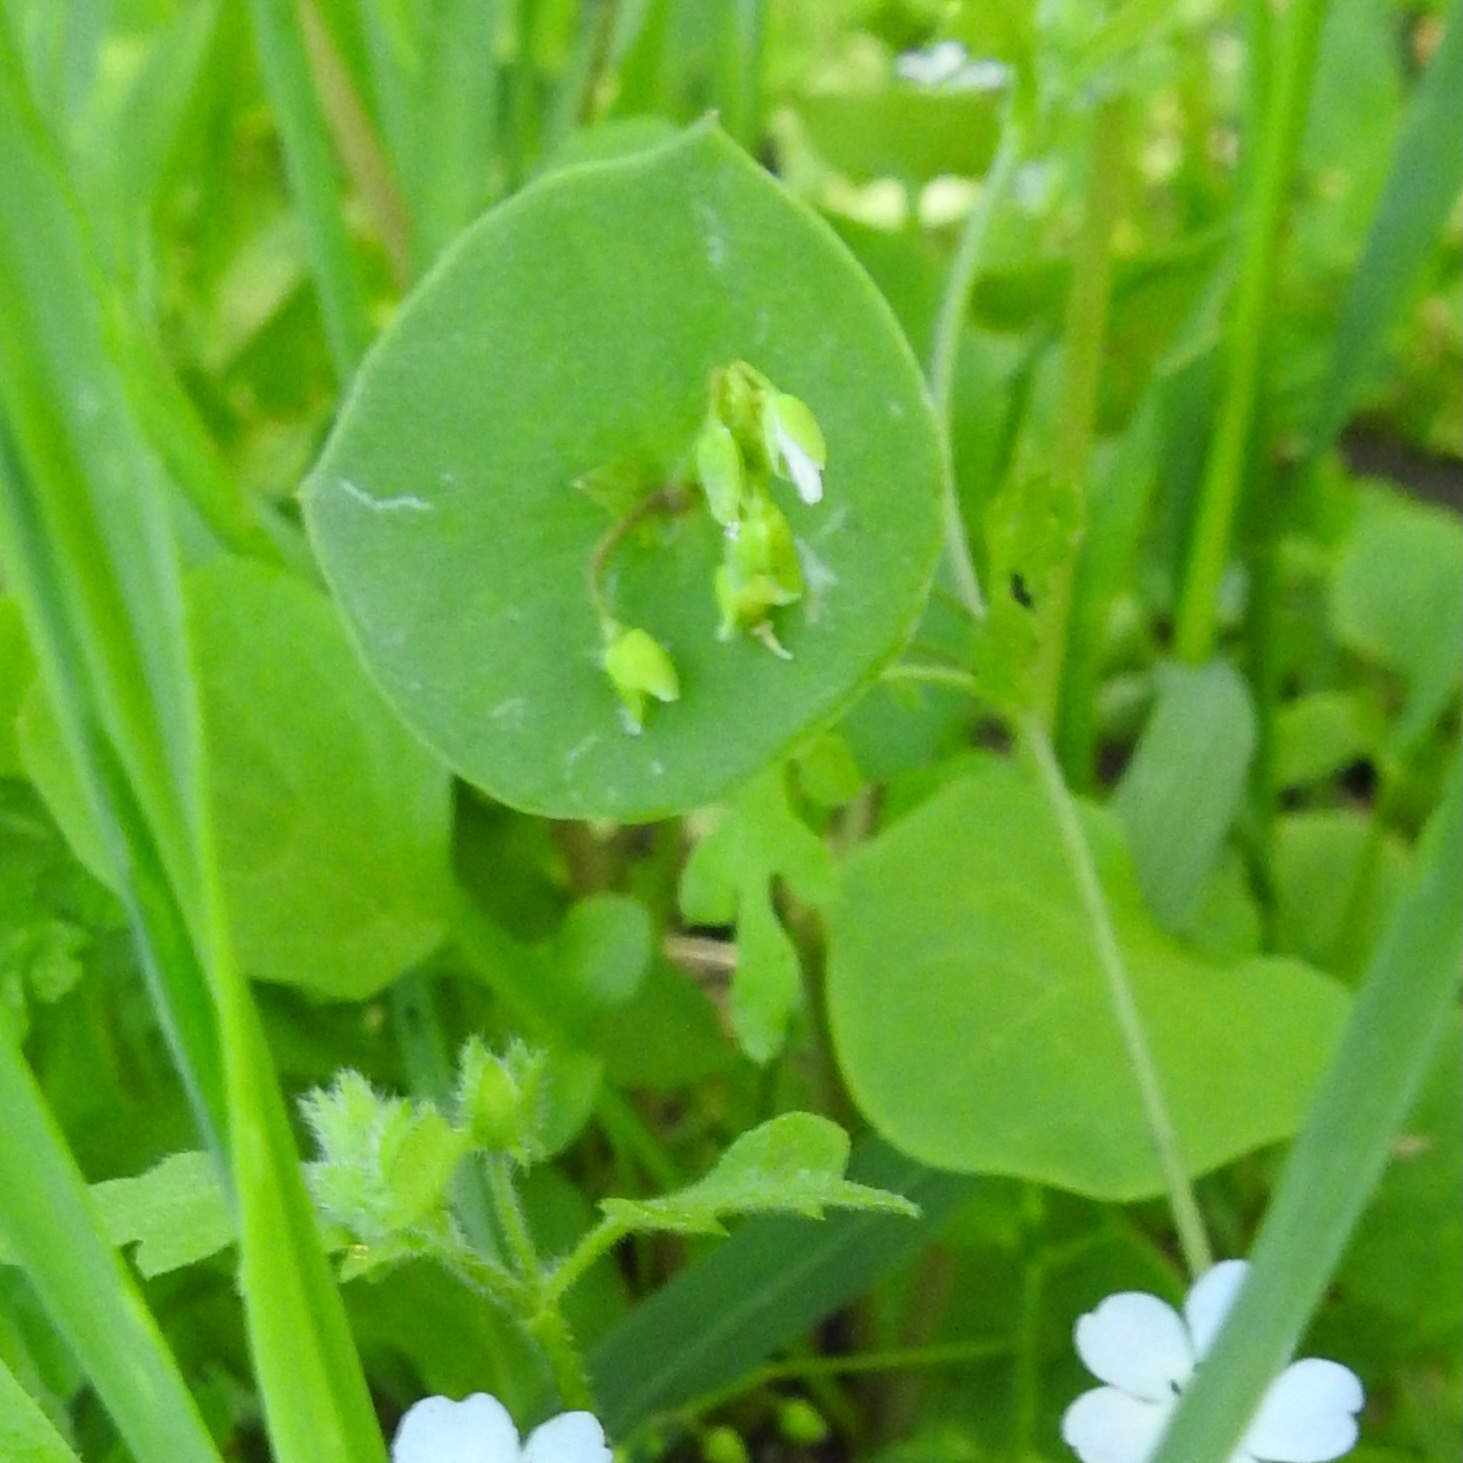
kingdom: Plantae
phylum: Tracheophyta
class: Magnoliopsida
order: Caryophyllales
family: Montiaceae
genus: Claytonia
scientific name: Claytonia perfoliata
